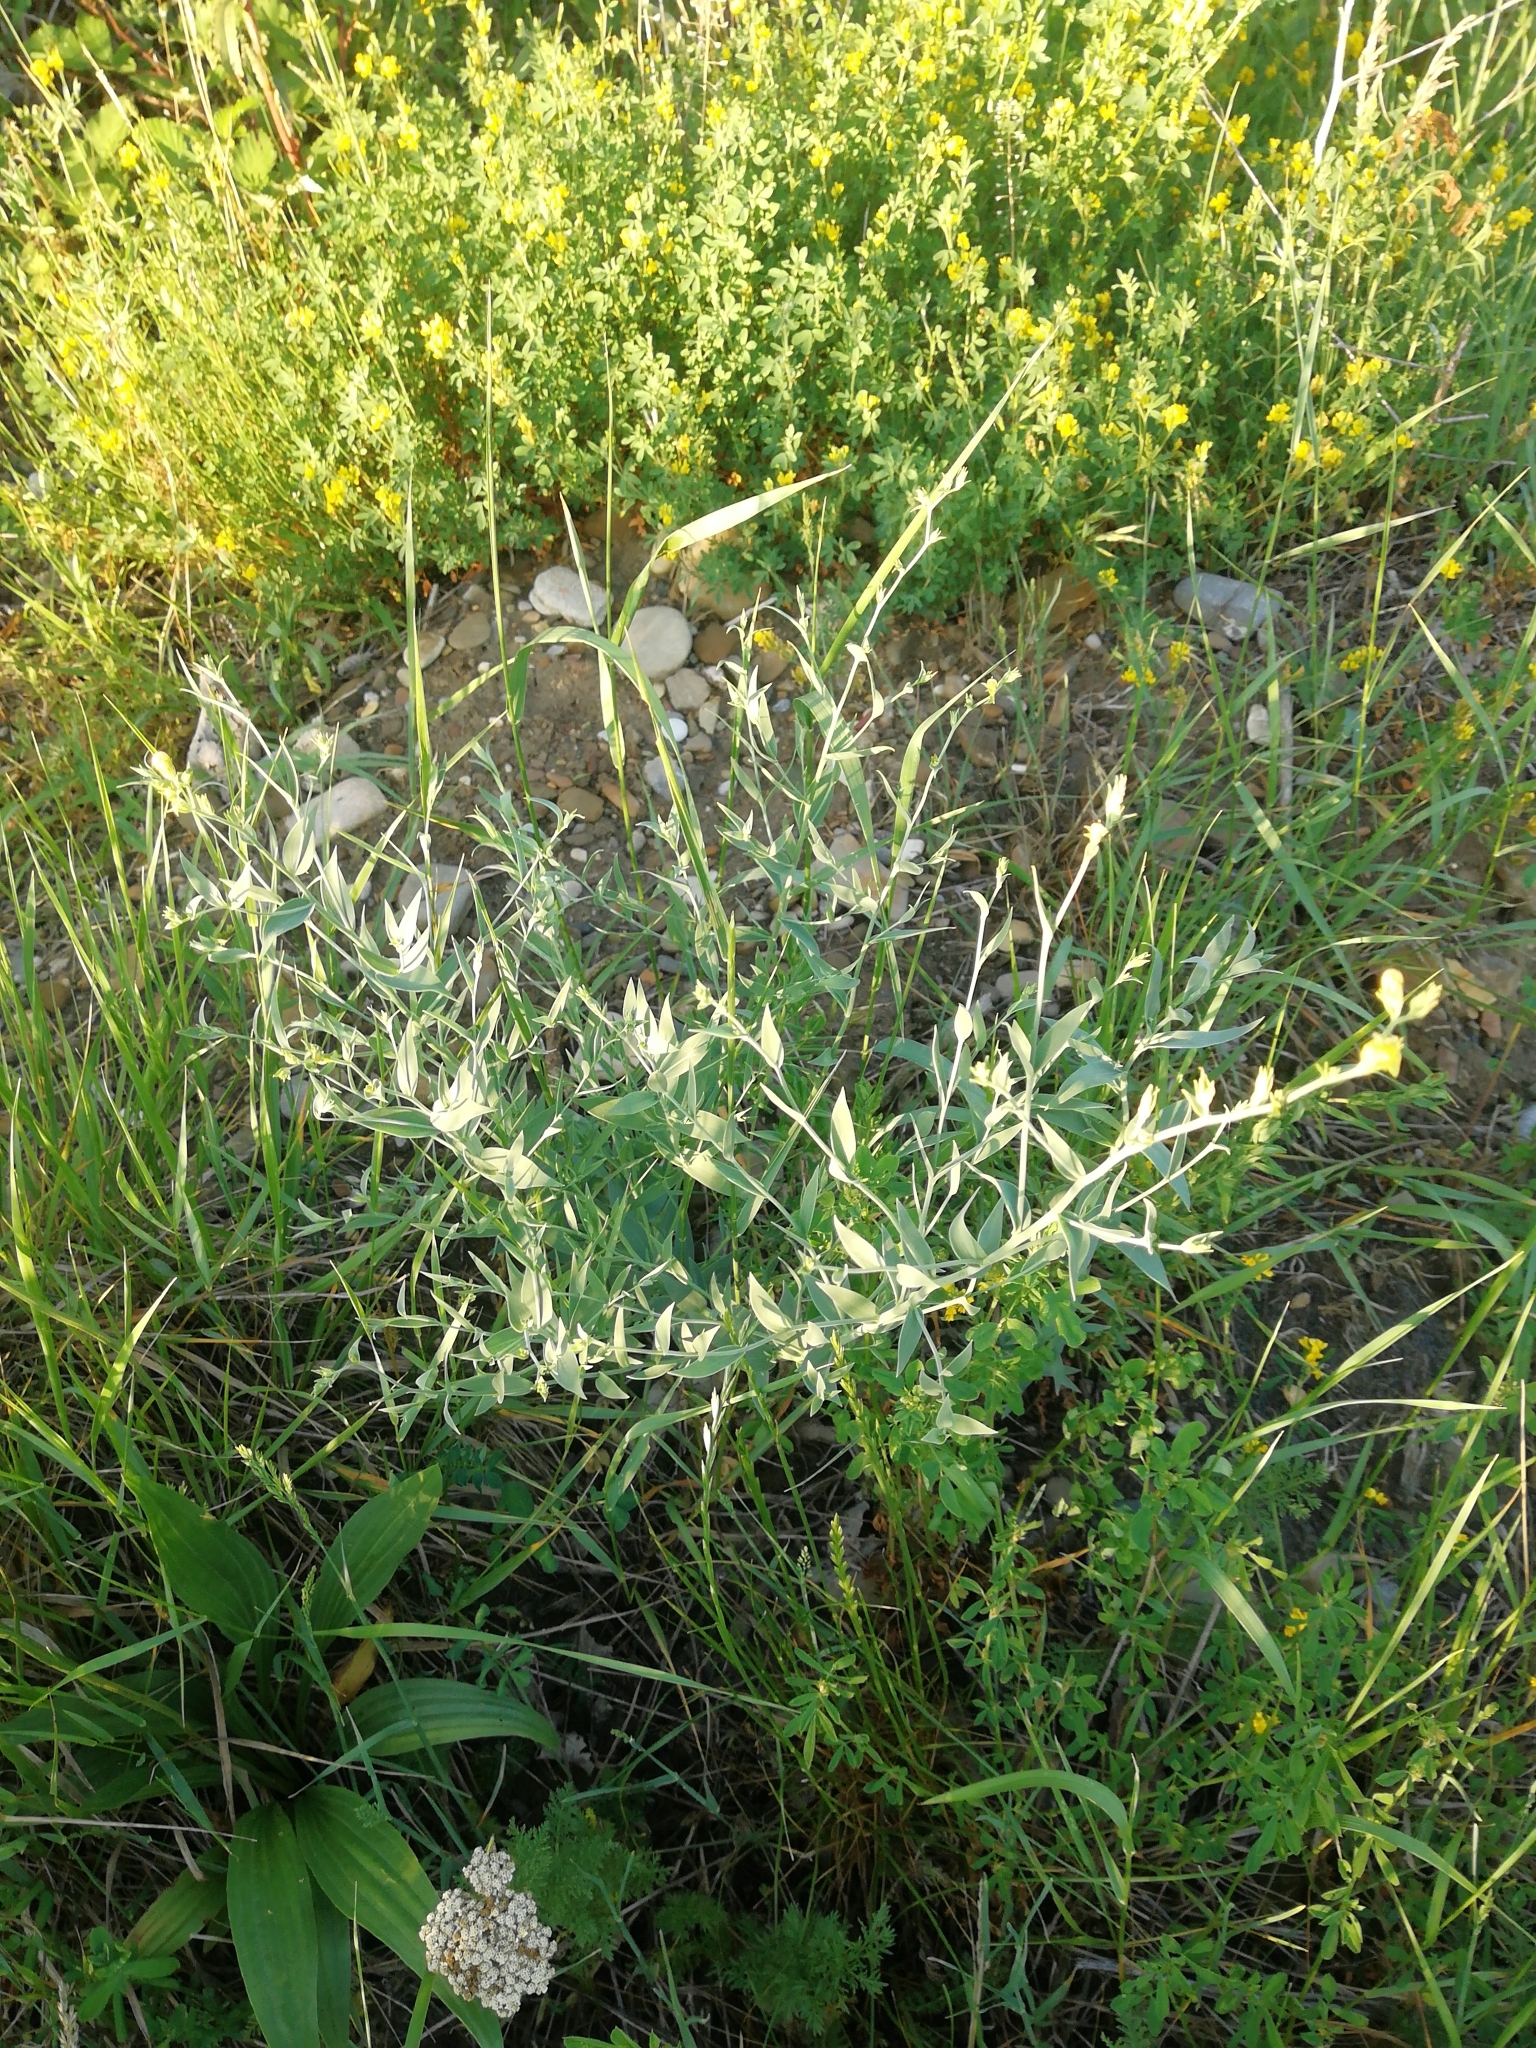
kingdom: Plantae
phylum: Tracheophyta
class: Magnoliopsida
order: Lamiales
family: Plantaginaceae
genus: Linaria
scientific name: Linaria genistifolia
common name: Broomleaf toadflax
